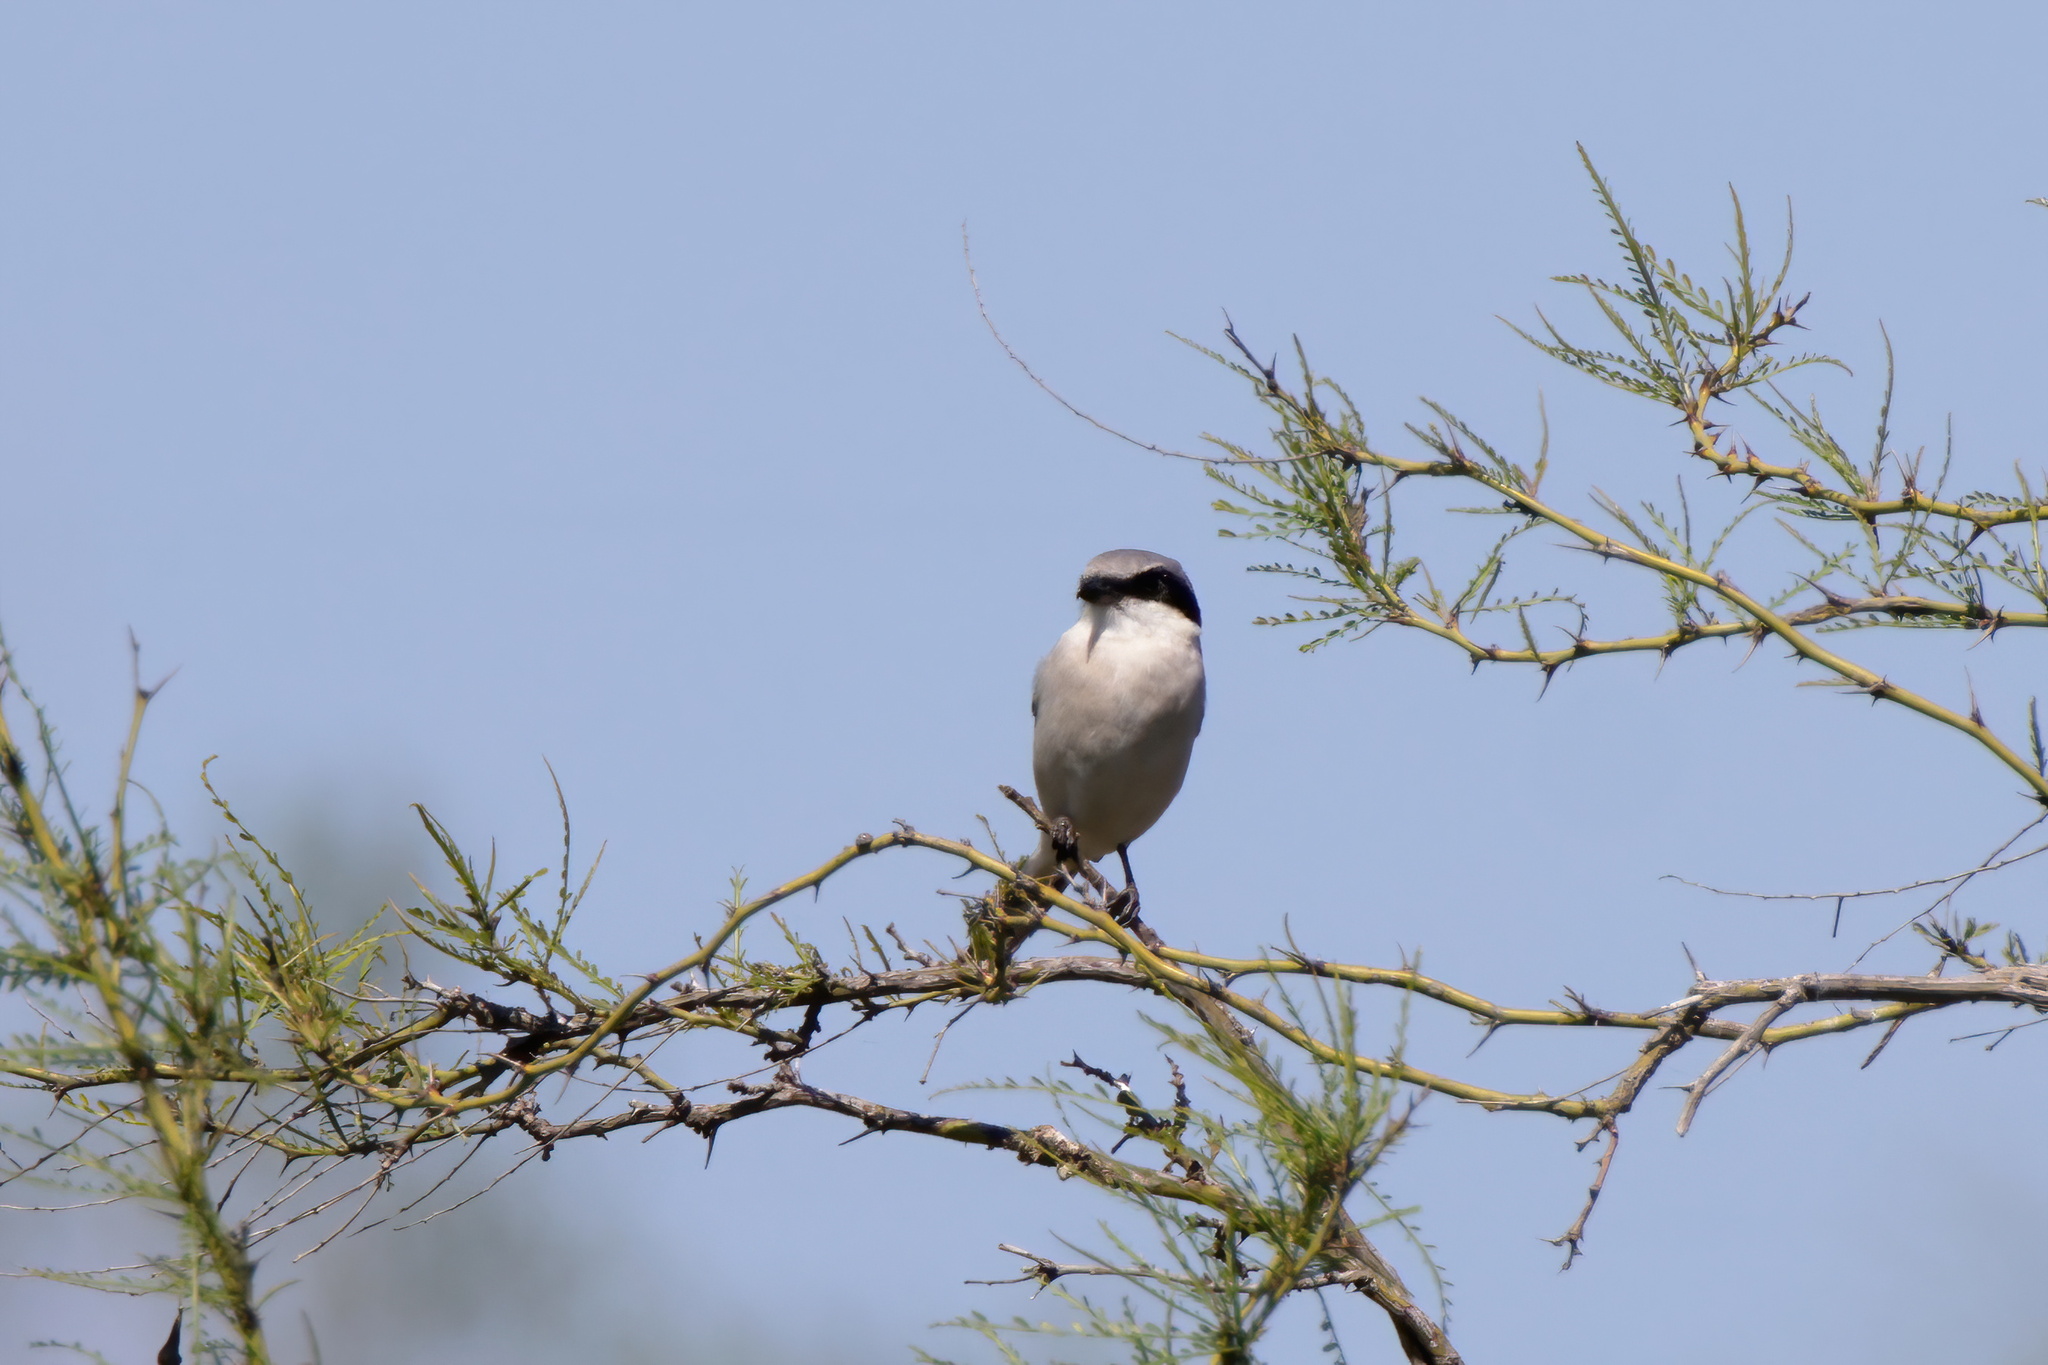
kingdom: Animalia
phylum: Chordata
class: Aves
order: Passeriformes
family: Laniidae
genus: Lanius
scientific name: Lanius ludovicianus
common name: Loggerhead shrike
